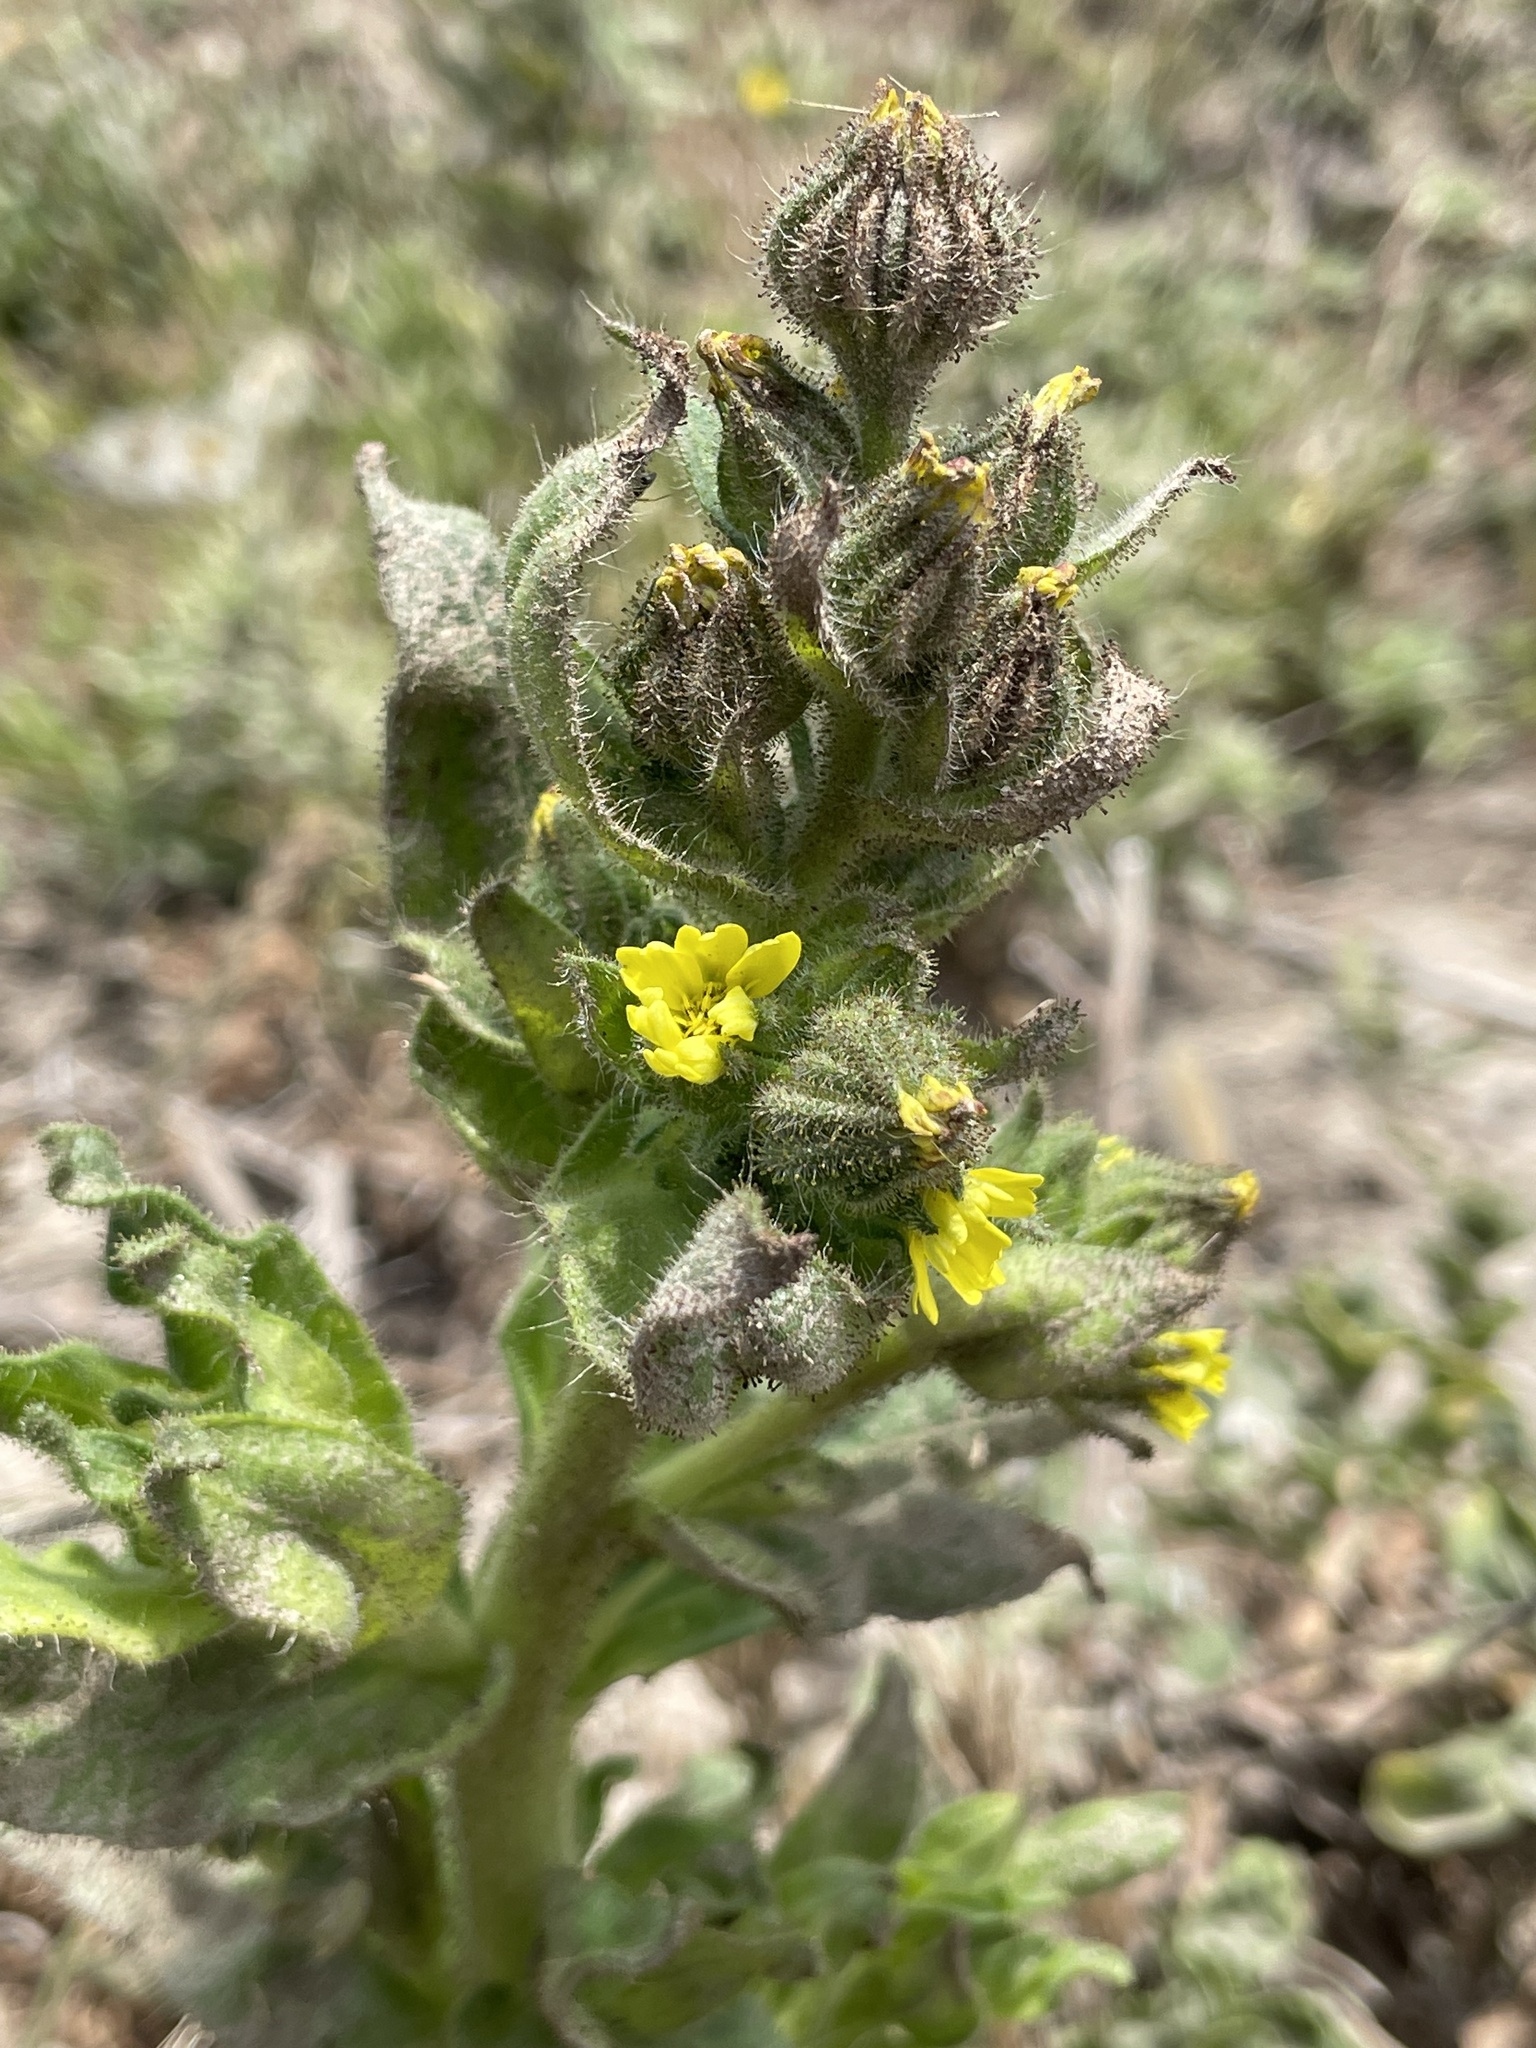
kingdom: Plantae
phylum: Tracheophyta
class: Magnoliopsida
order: Asterales
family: Asteraceae
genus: Madia
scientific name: Madia sativa
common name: Coast tarweed
